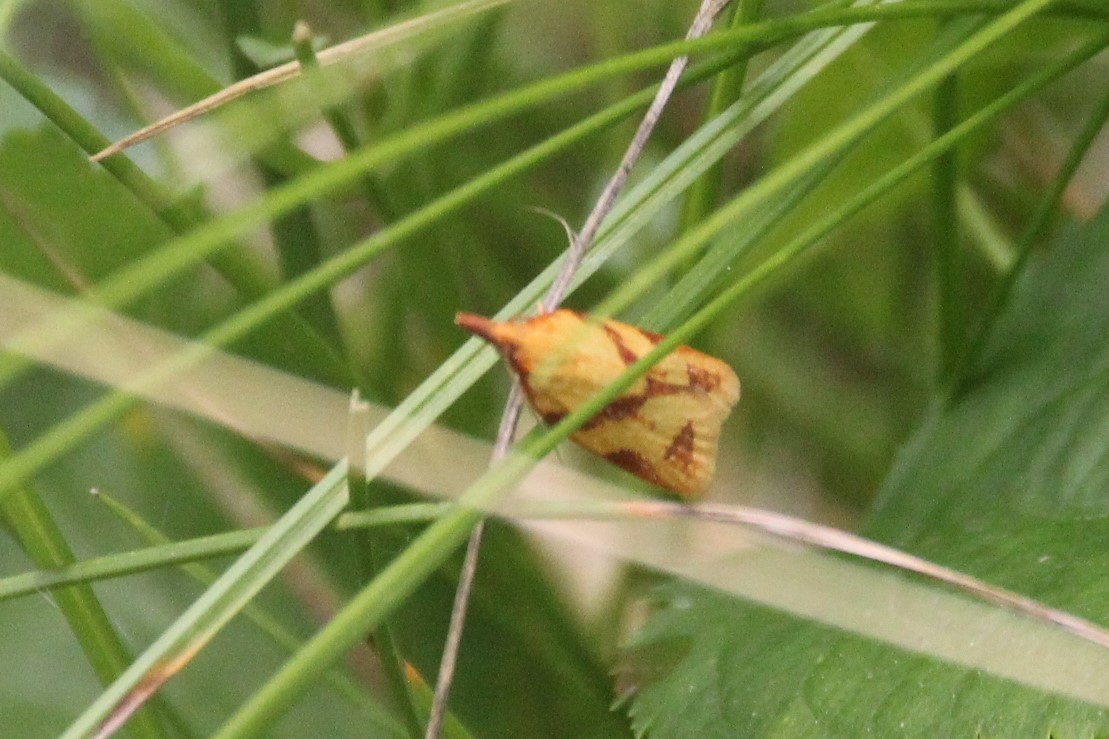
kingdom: Animalia
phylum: Arthropoda
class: Insecta
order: Lepidoptera
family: Tortricidae
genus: Sparganothis
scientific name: Sparganothis unifasciana
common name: One-lined sparganothis moth
